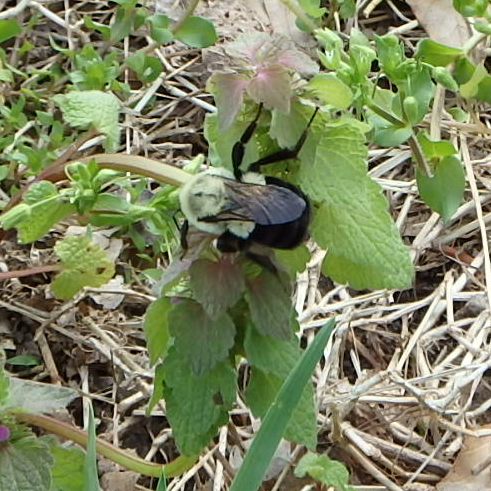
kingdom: Animalia
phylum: Arthropoda
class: Insecta
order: Hymenoptera
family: Apidae
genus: Bombus
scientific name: Bombus impatiens
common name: Common eastern bumble bee
